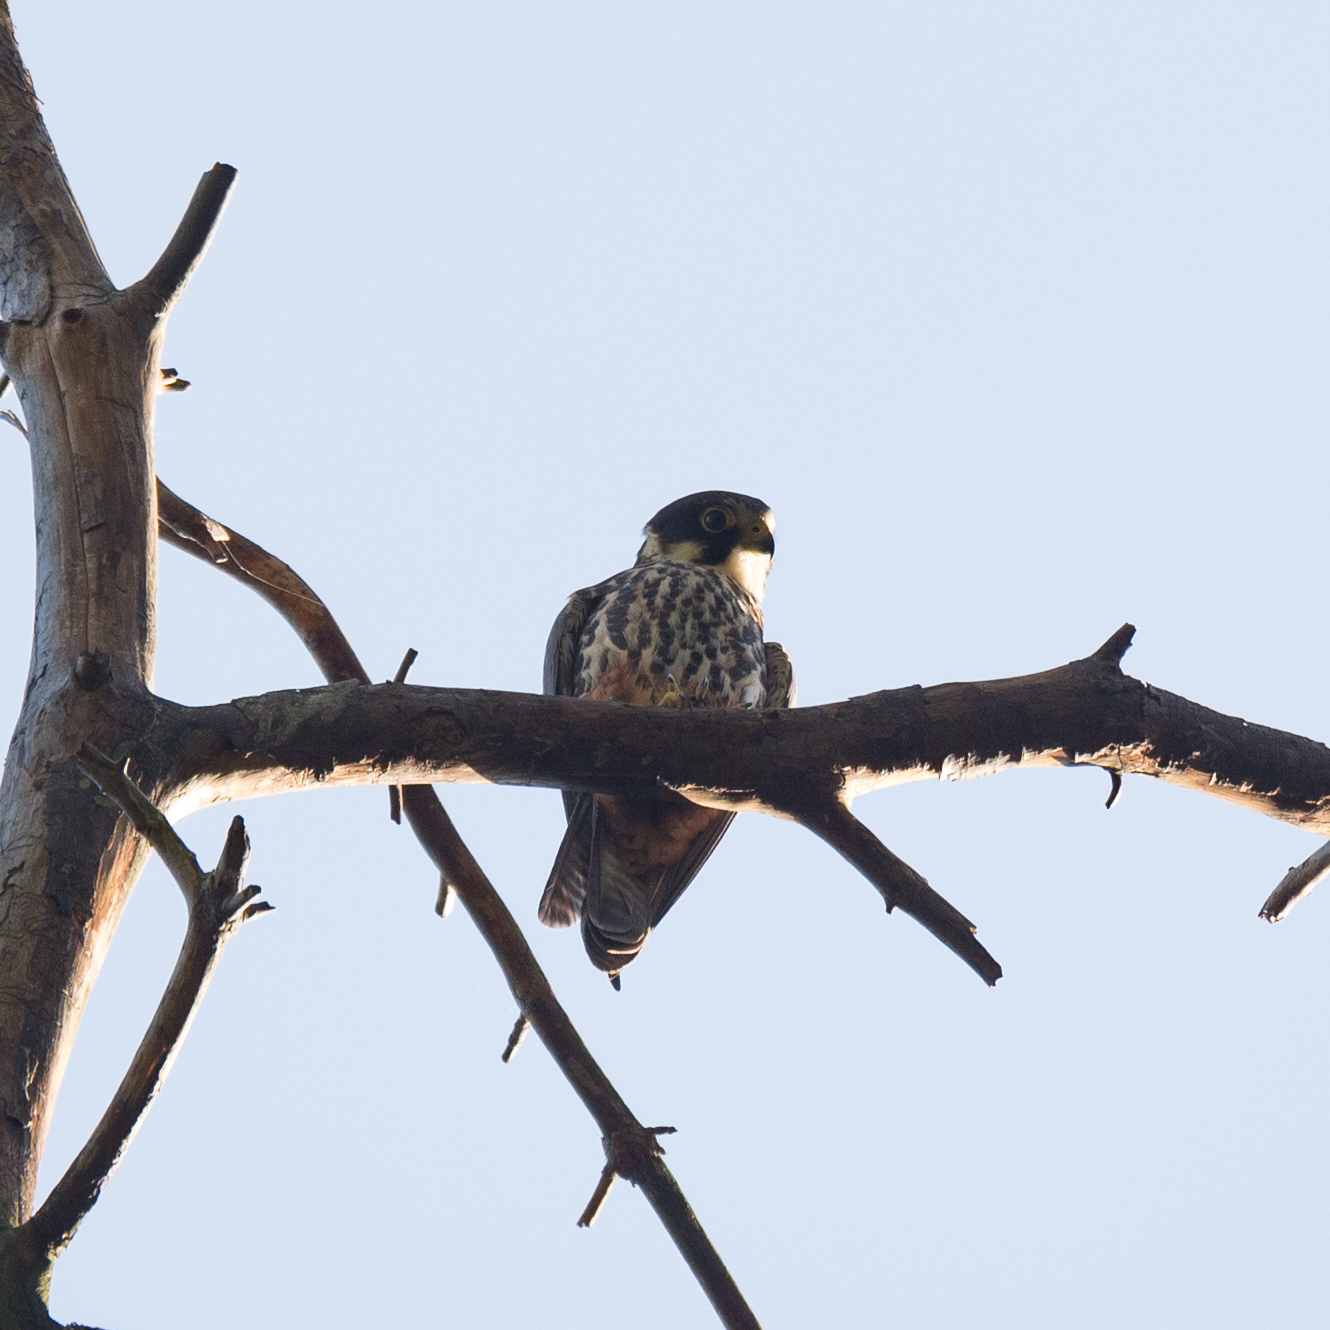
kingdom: Animalia
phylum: Chordata
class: Aves
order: Falconiformes
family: Falconidae
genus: Falco
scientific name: Falco subbuteo
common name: Eurasian hobby
